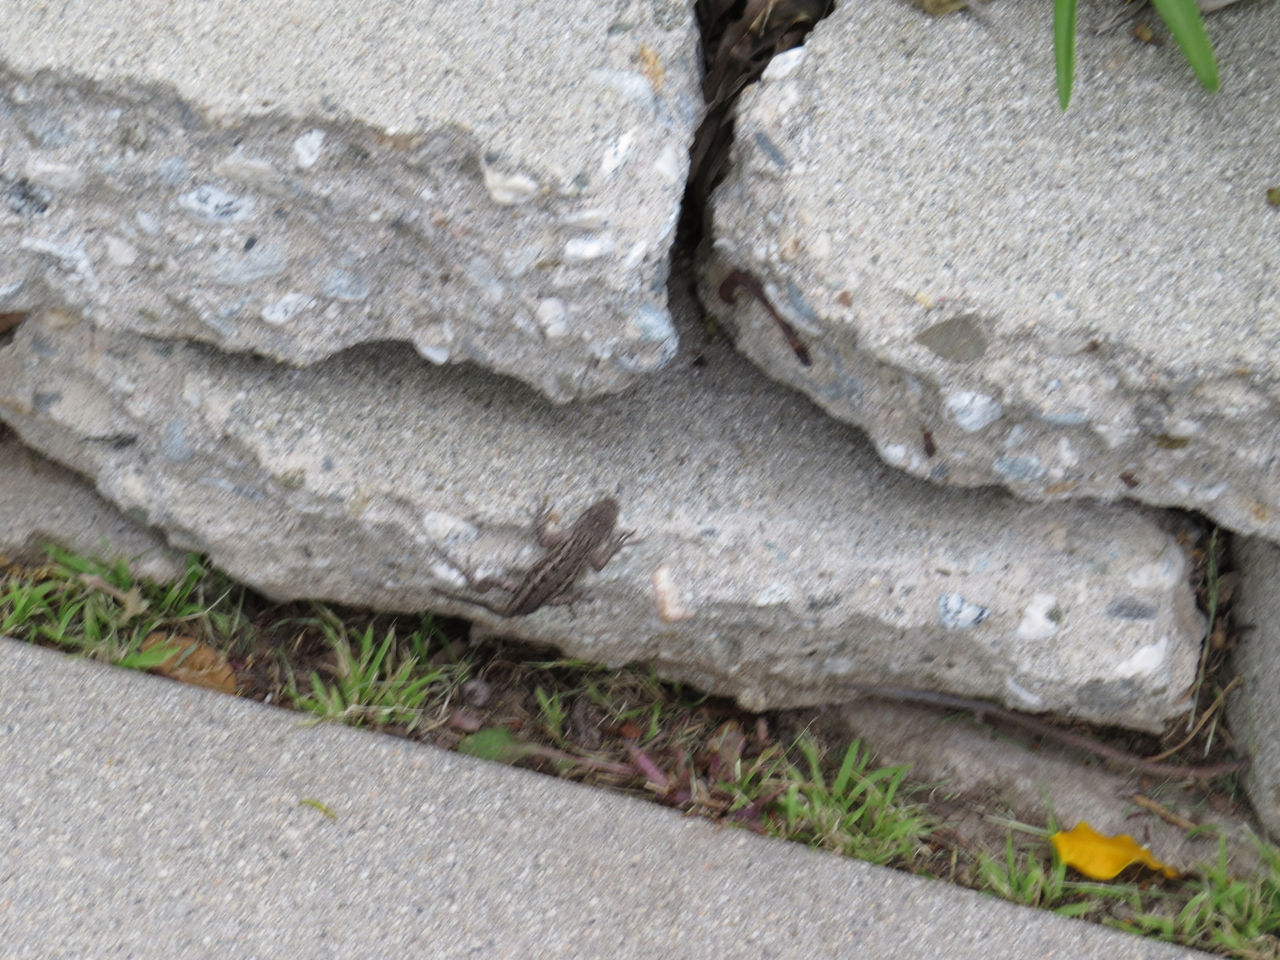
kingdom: Animalia
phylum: Chordata
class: Squamata
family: Phrynosomatidae
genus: Sceloporus
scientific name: Sceloporus occidentalis
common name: Western fence lizard
